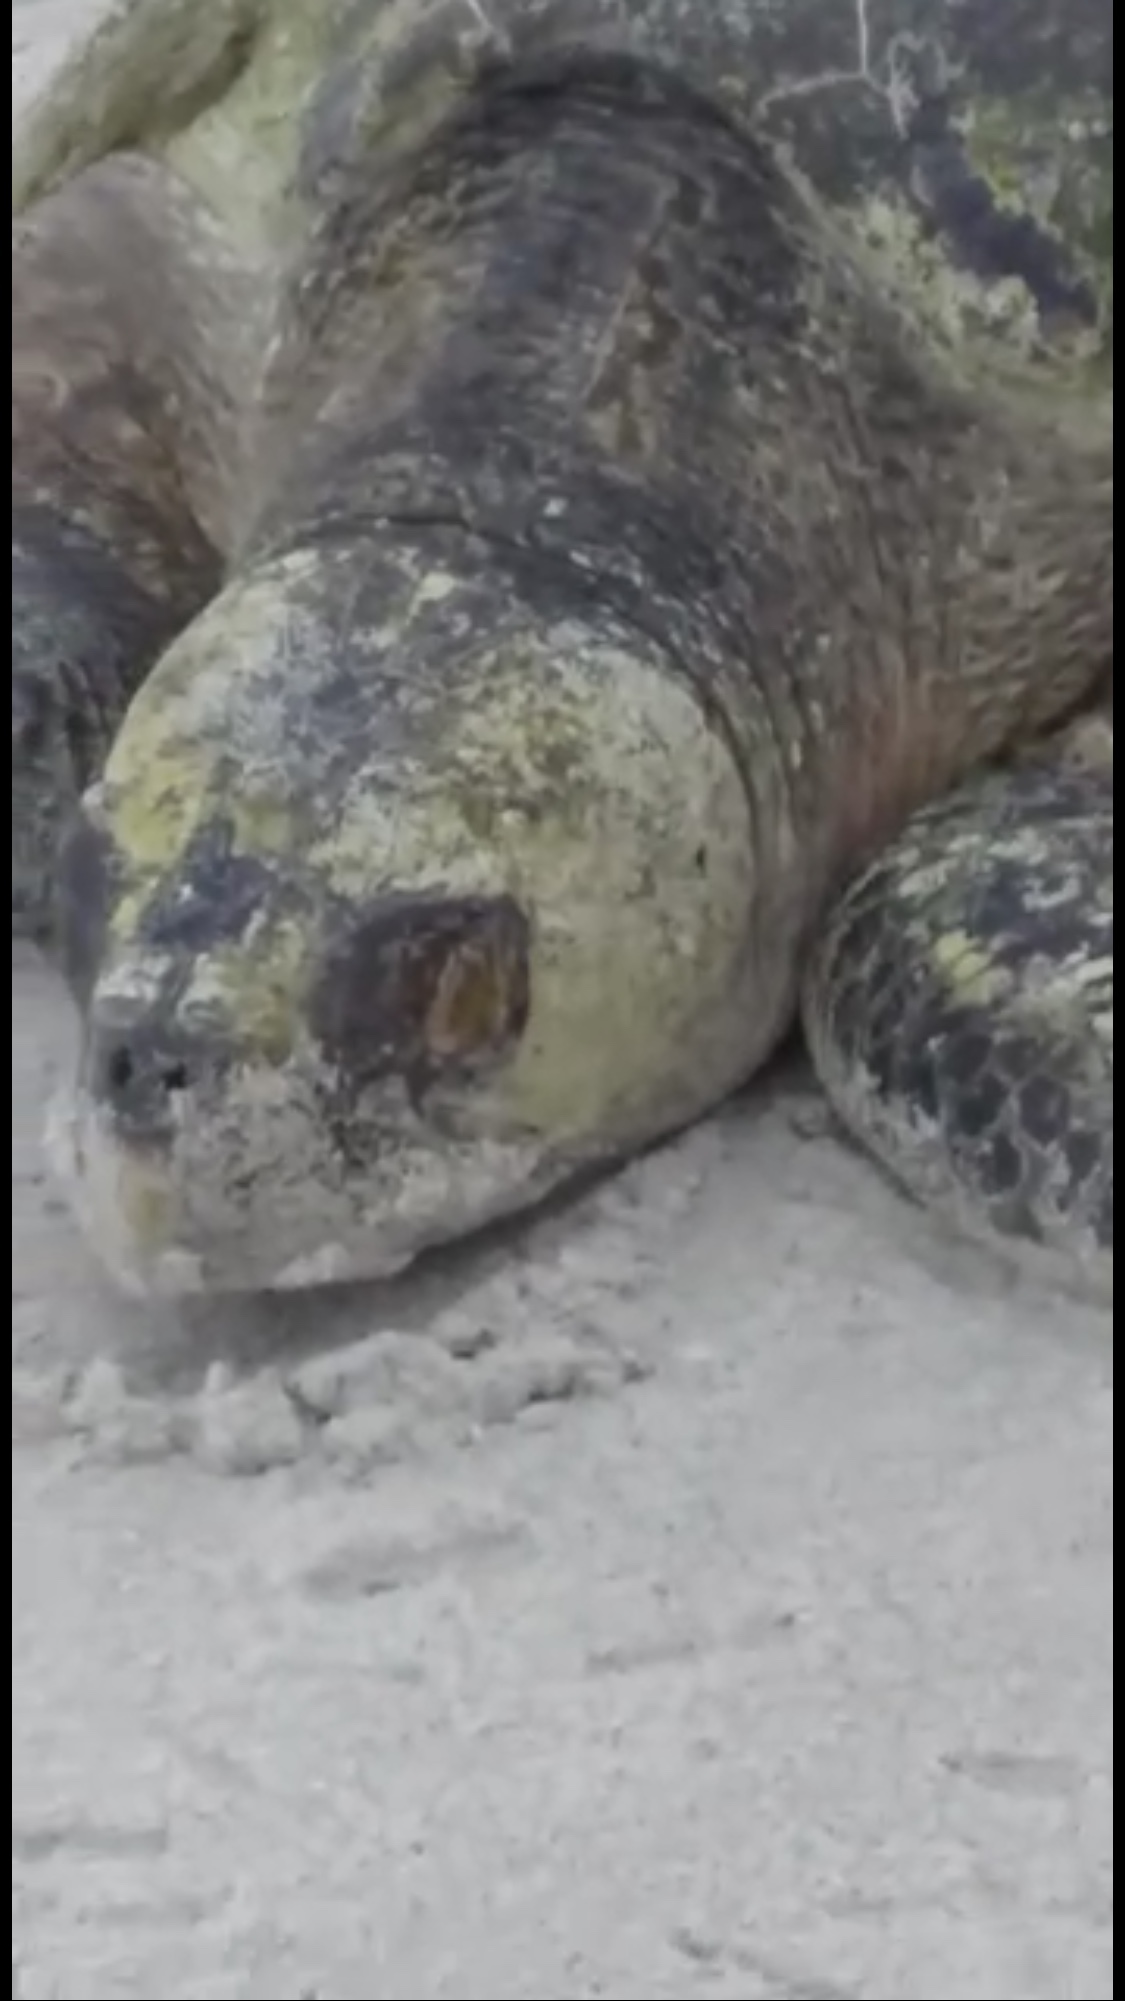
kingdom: Animalia
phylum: Chordata
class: Testudines
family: Cheloniidae
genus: Lepidochelys
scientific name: Lepidochelys olivacea
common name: Olive ridley
